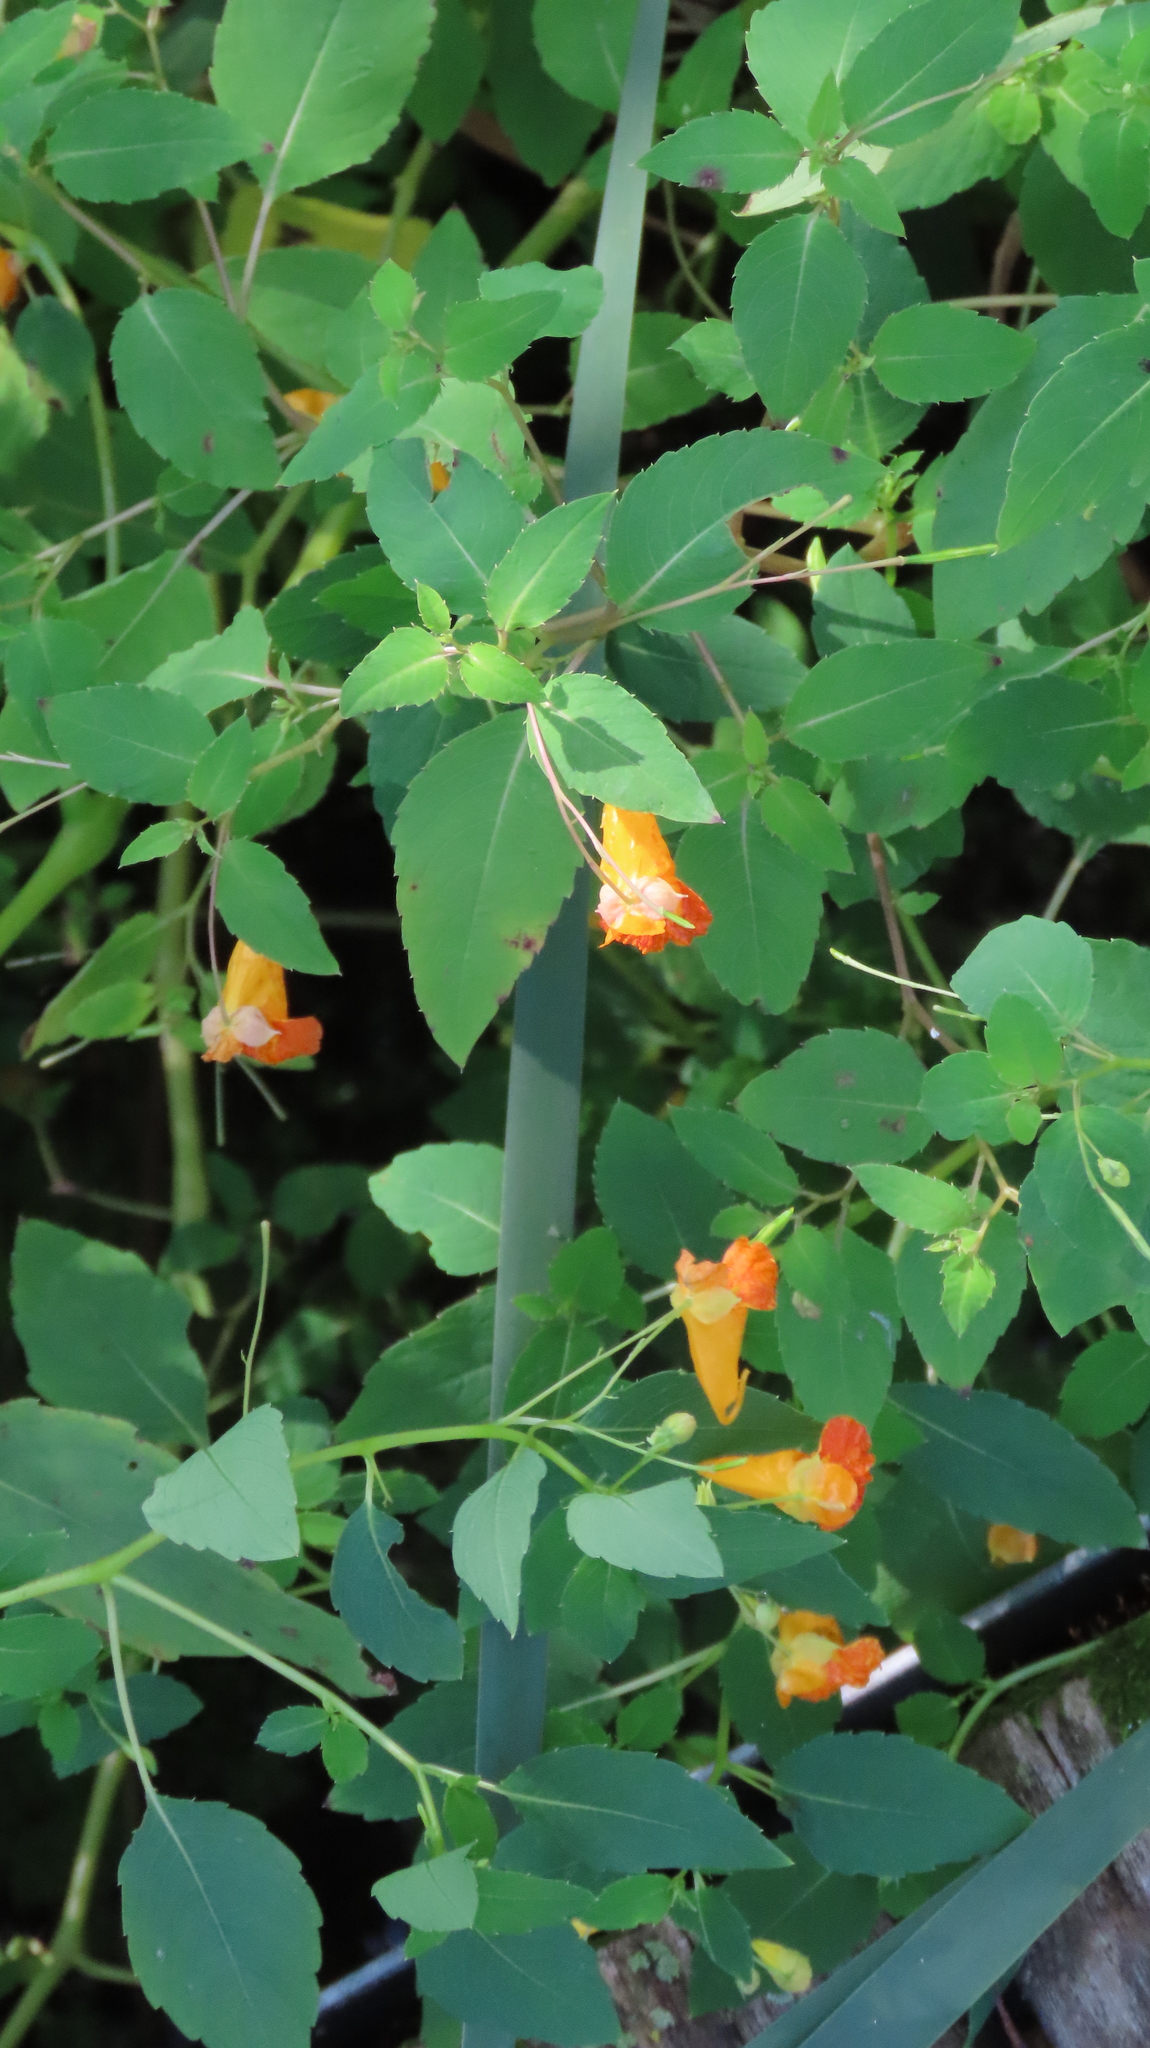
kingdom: Plantae
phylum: Tracheophyta
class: Magnoliopsida
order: Ericales
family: Balsaminaceae
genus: Impatiens
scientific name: Impatiens capensis
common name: Orange balsam
